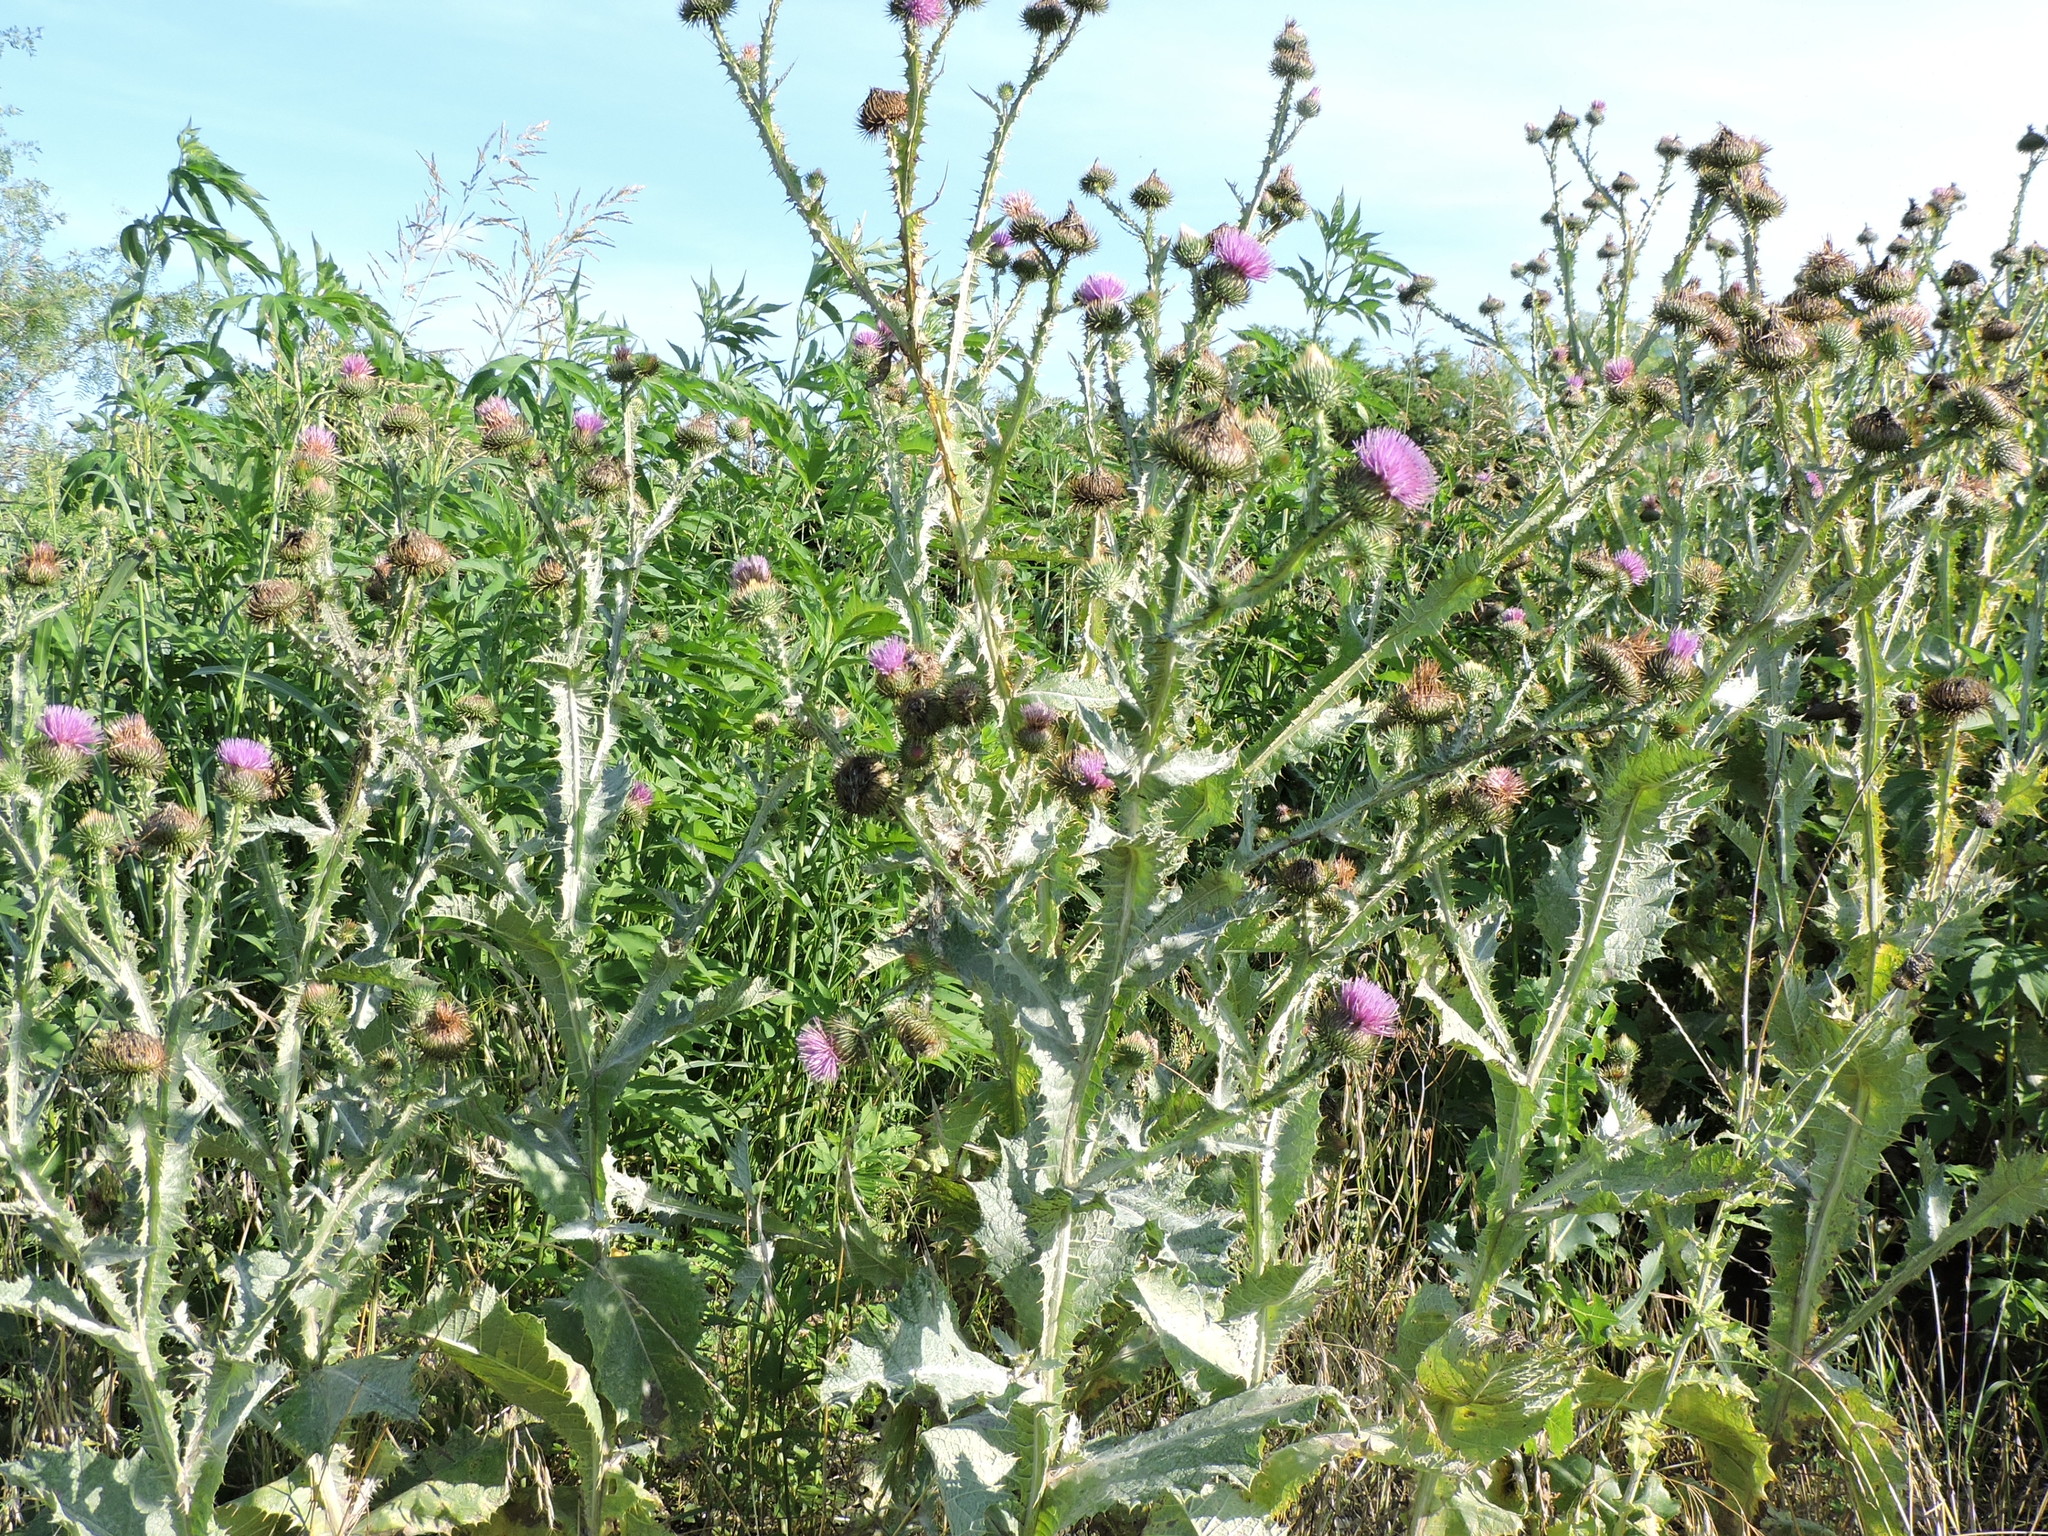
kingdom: Plantae
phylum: Tracheophyta
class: Magnoliopsida
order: Asterales
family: Asteraceae
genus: Onopordum
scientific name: Onopordum acanthium
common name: Scotch thistle
